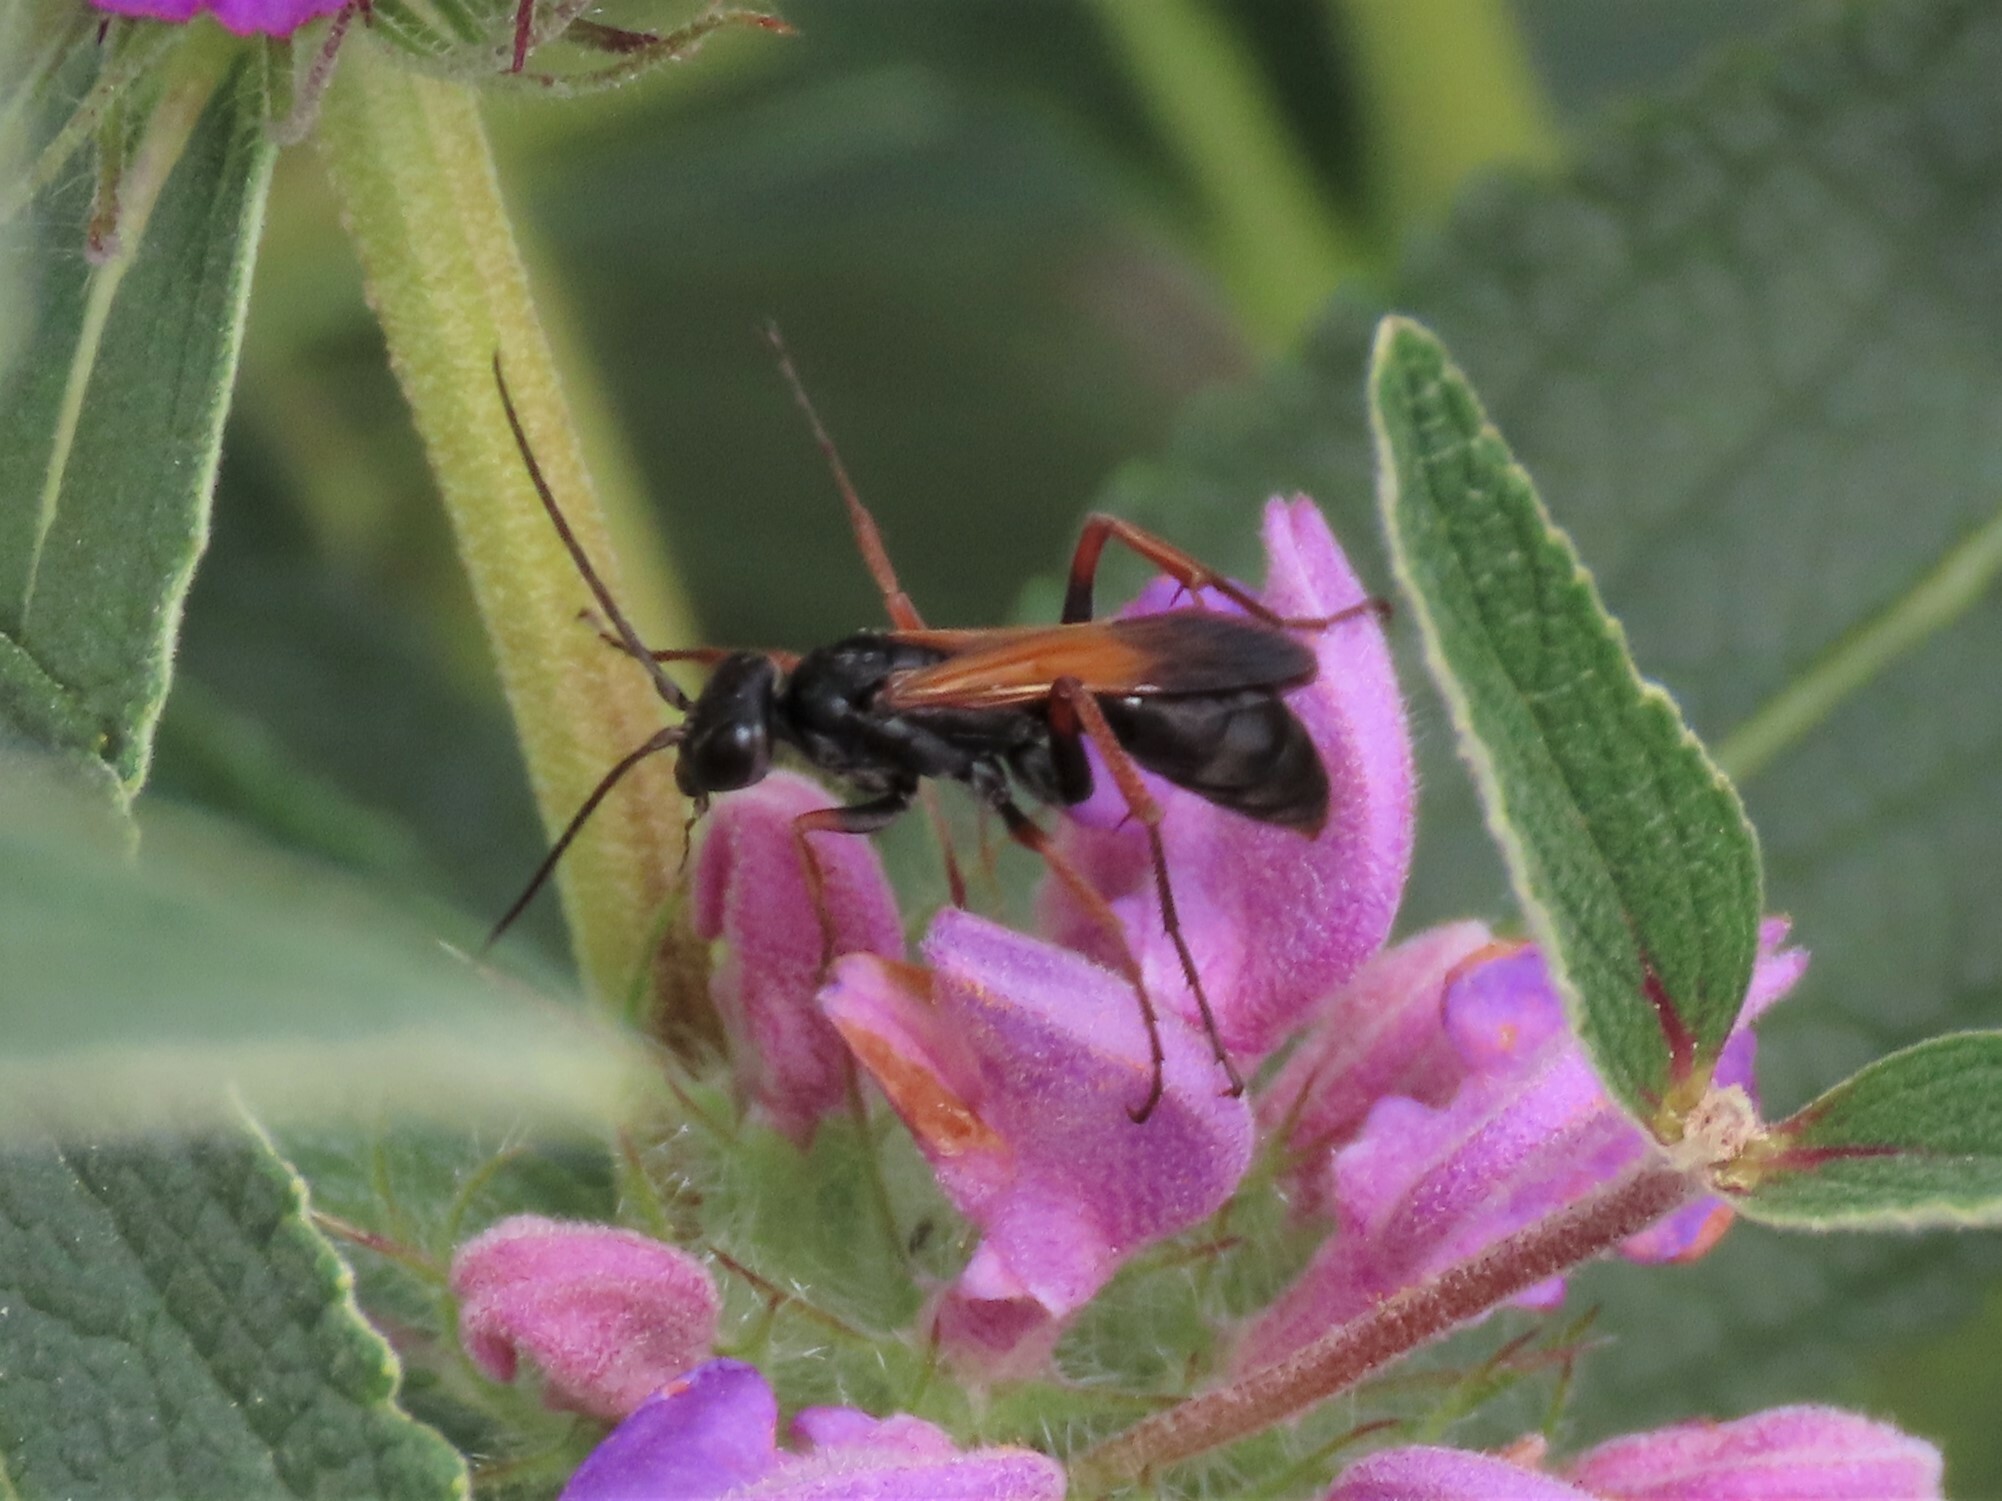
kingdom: Animalia
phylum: Arthropoda
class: Insecta
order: Hymenoptera
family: Pompilidae
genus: Cryptocheilus
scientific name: Cryptocheilus infumatus
